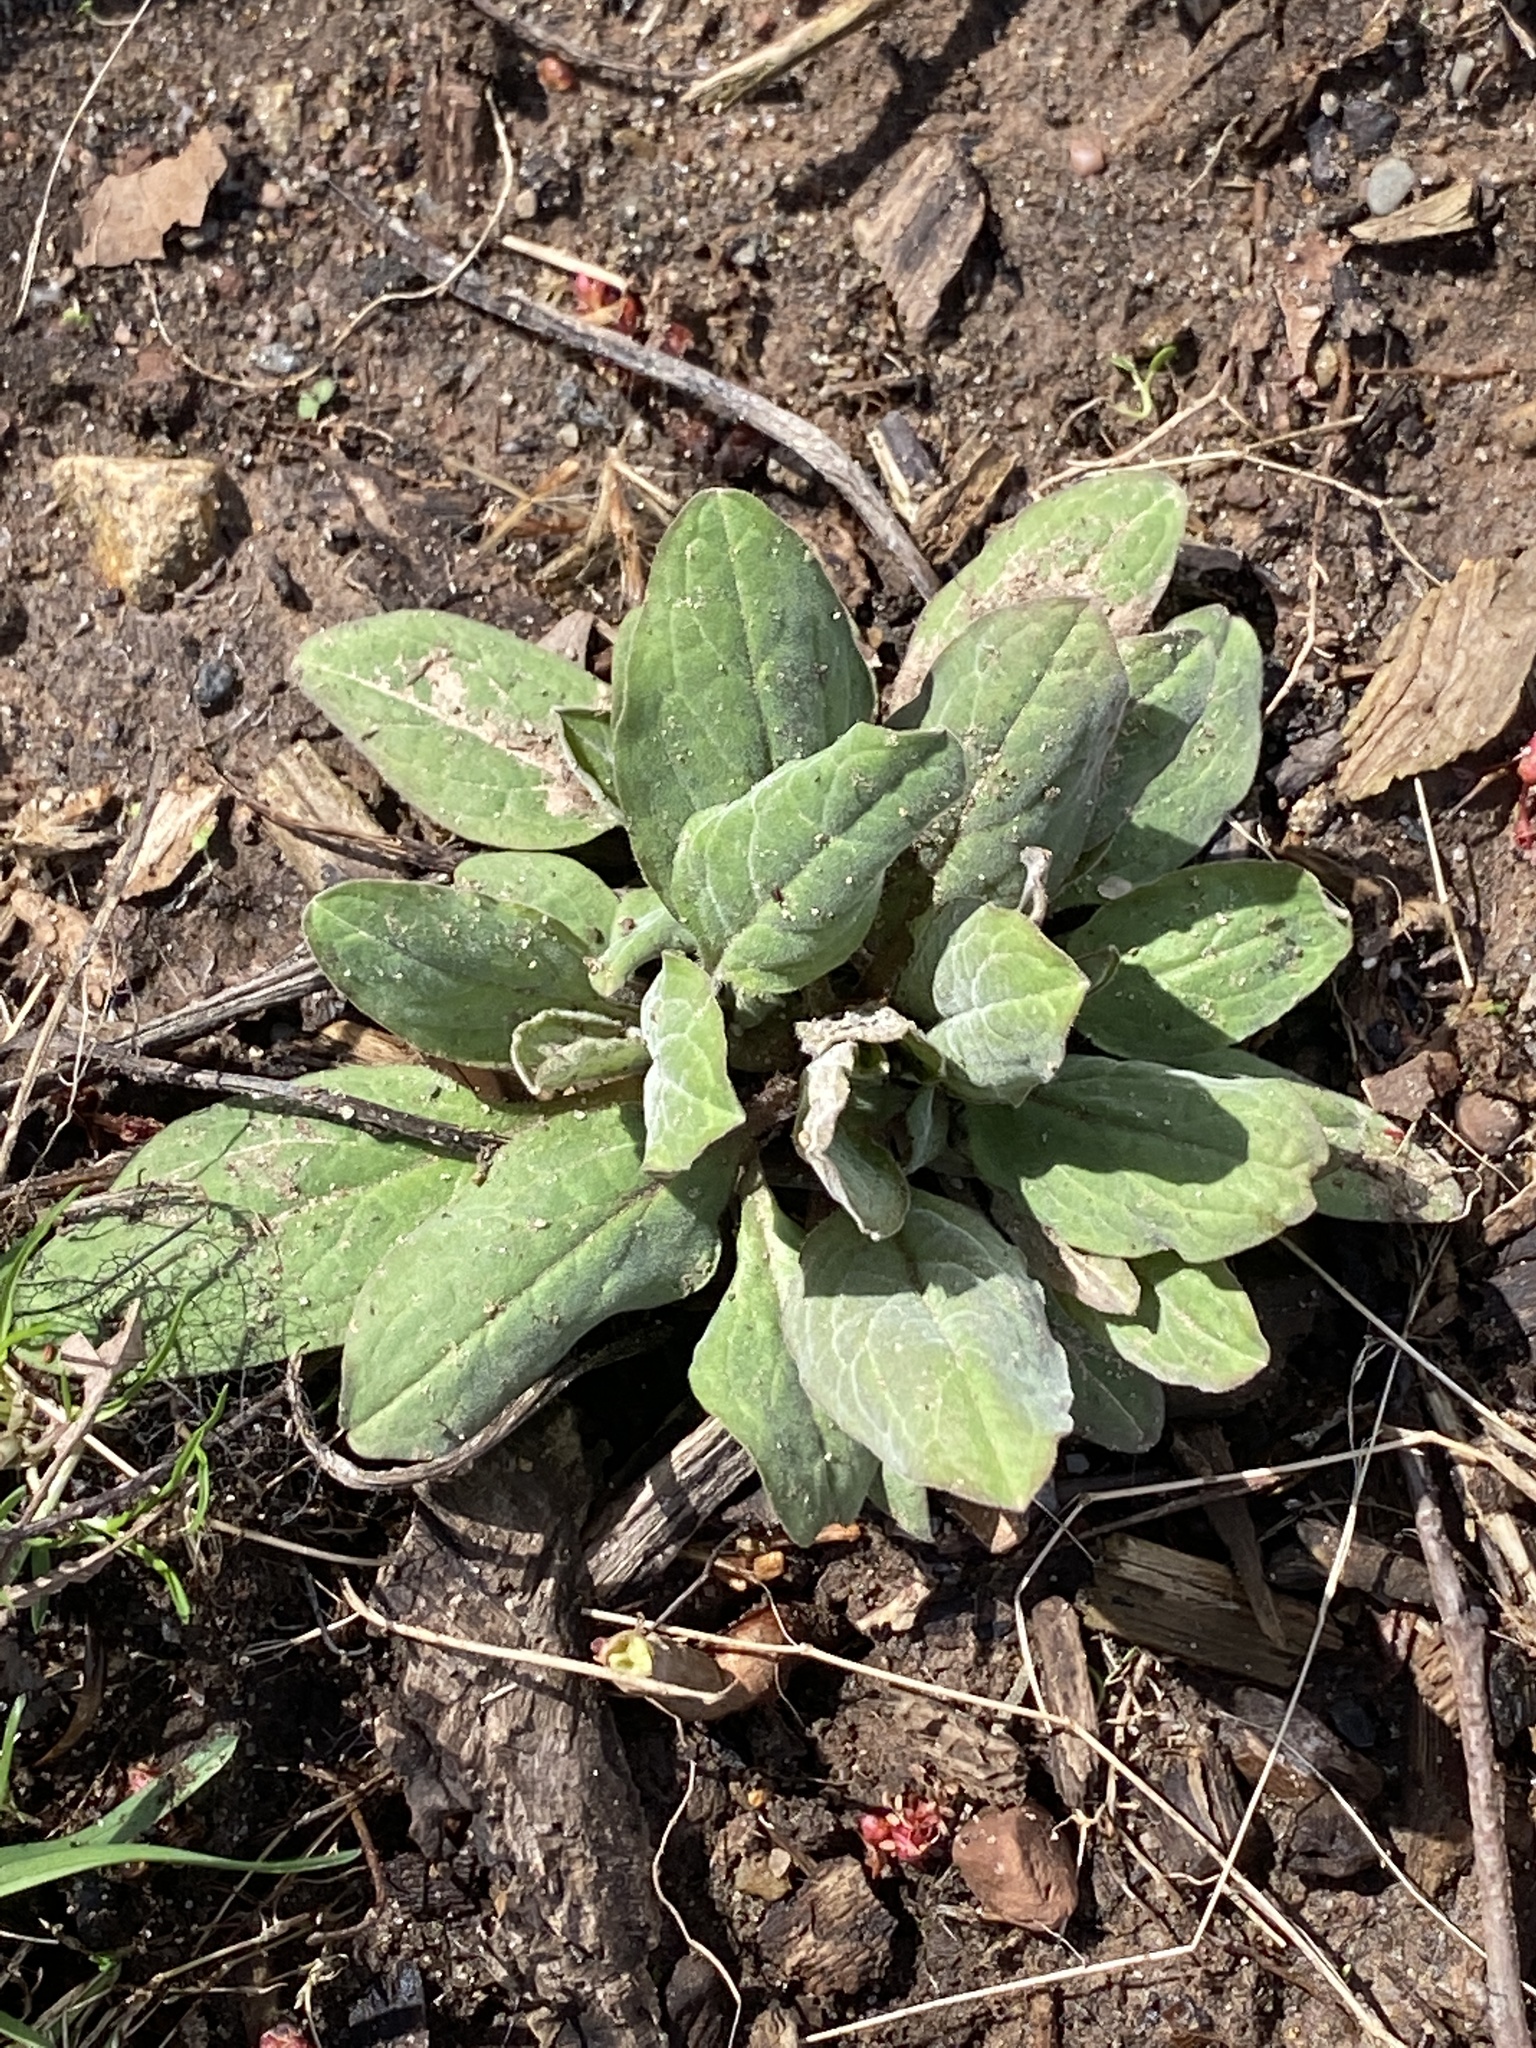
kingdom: Plantae
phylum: Tracheophyta
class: Magnoliopsida
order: Boraginales
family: Boraginaceae
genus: Hackelia
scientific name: Hackelia virginiana
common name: Beggar's-lice
